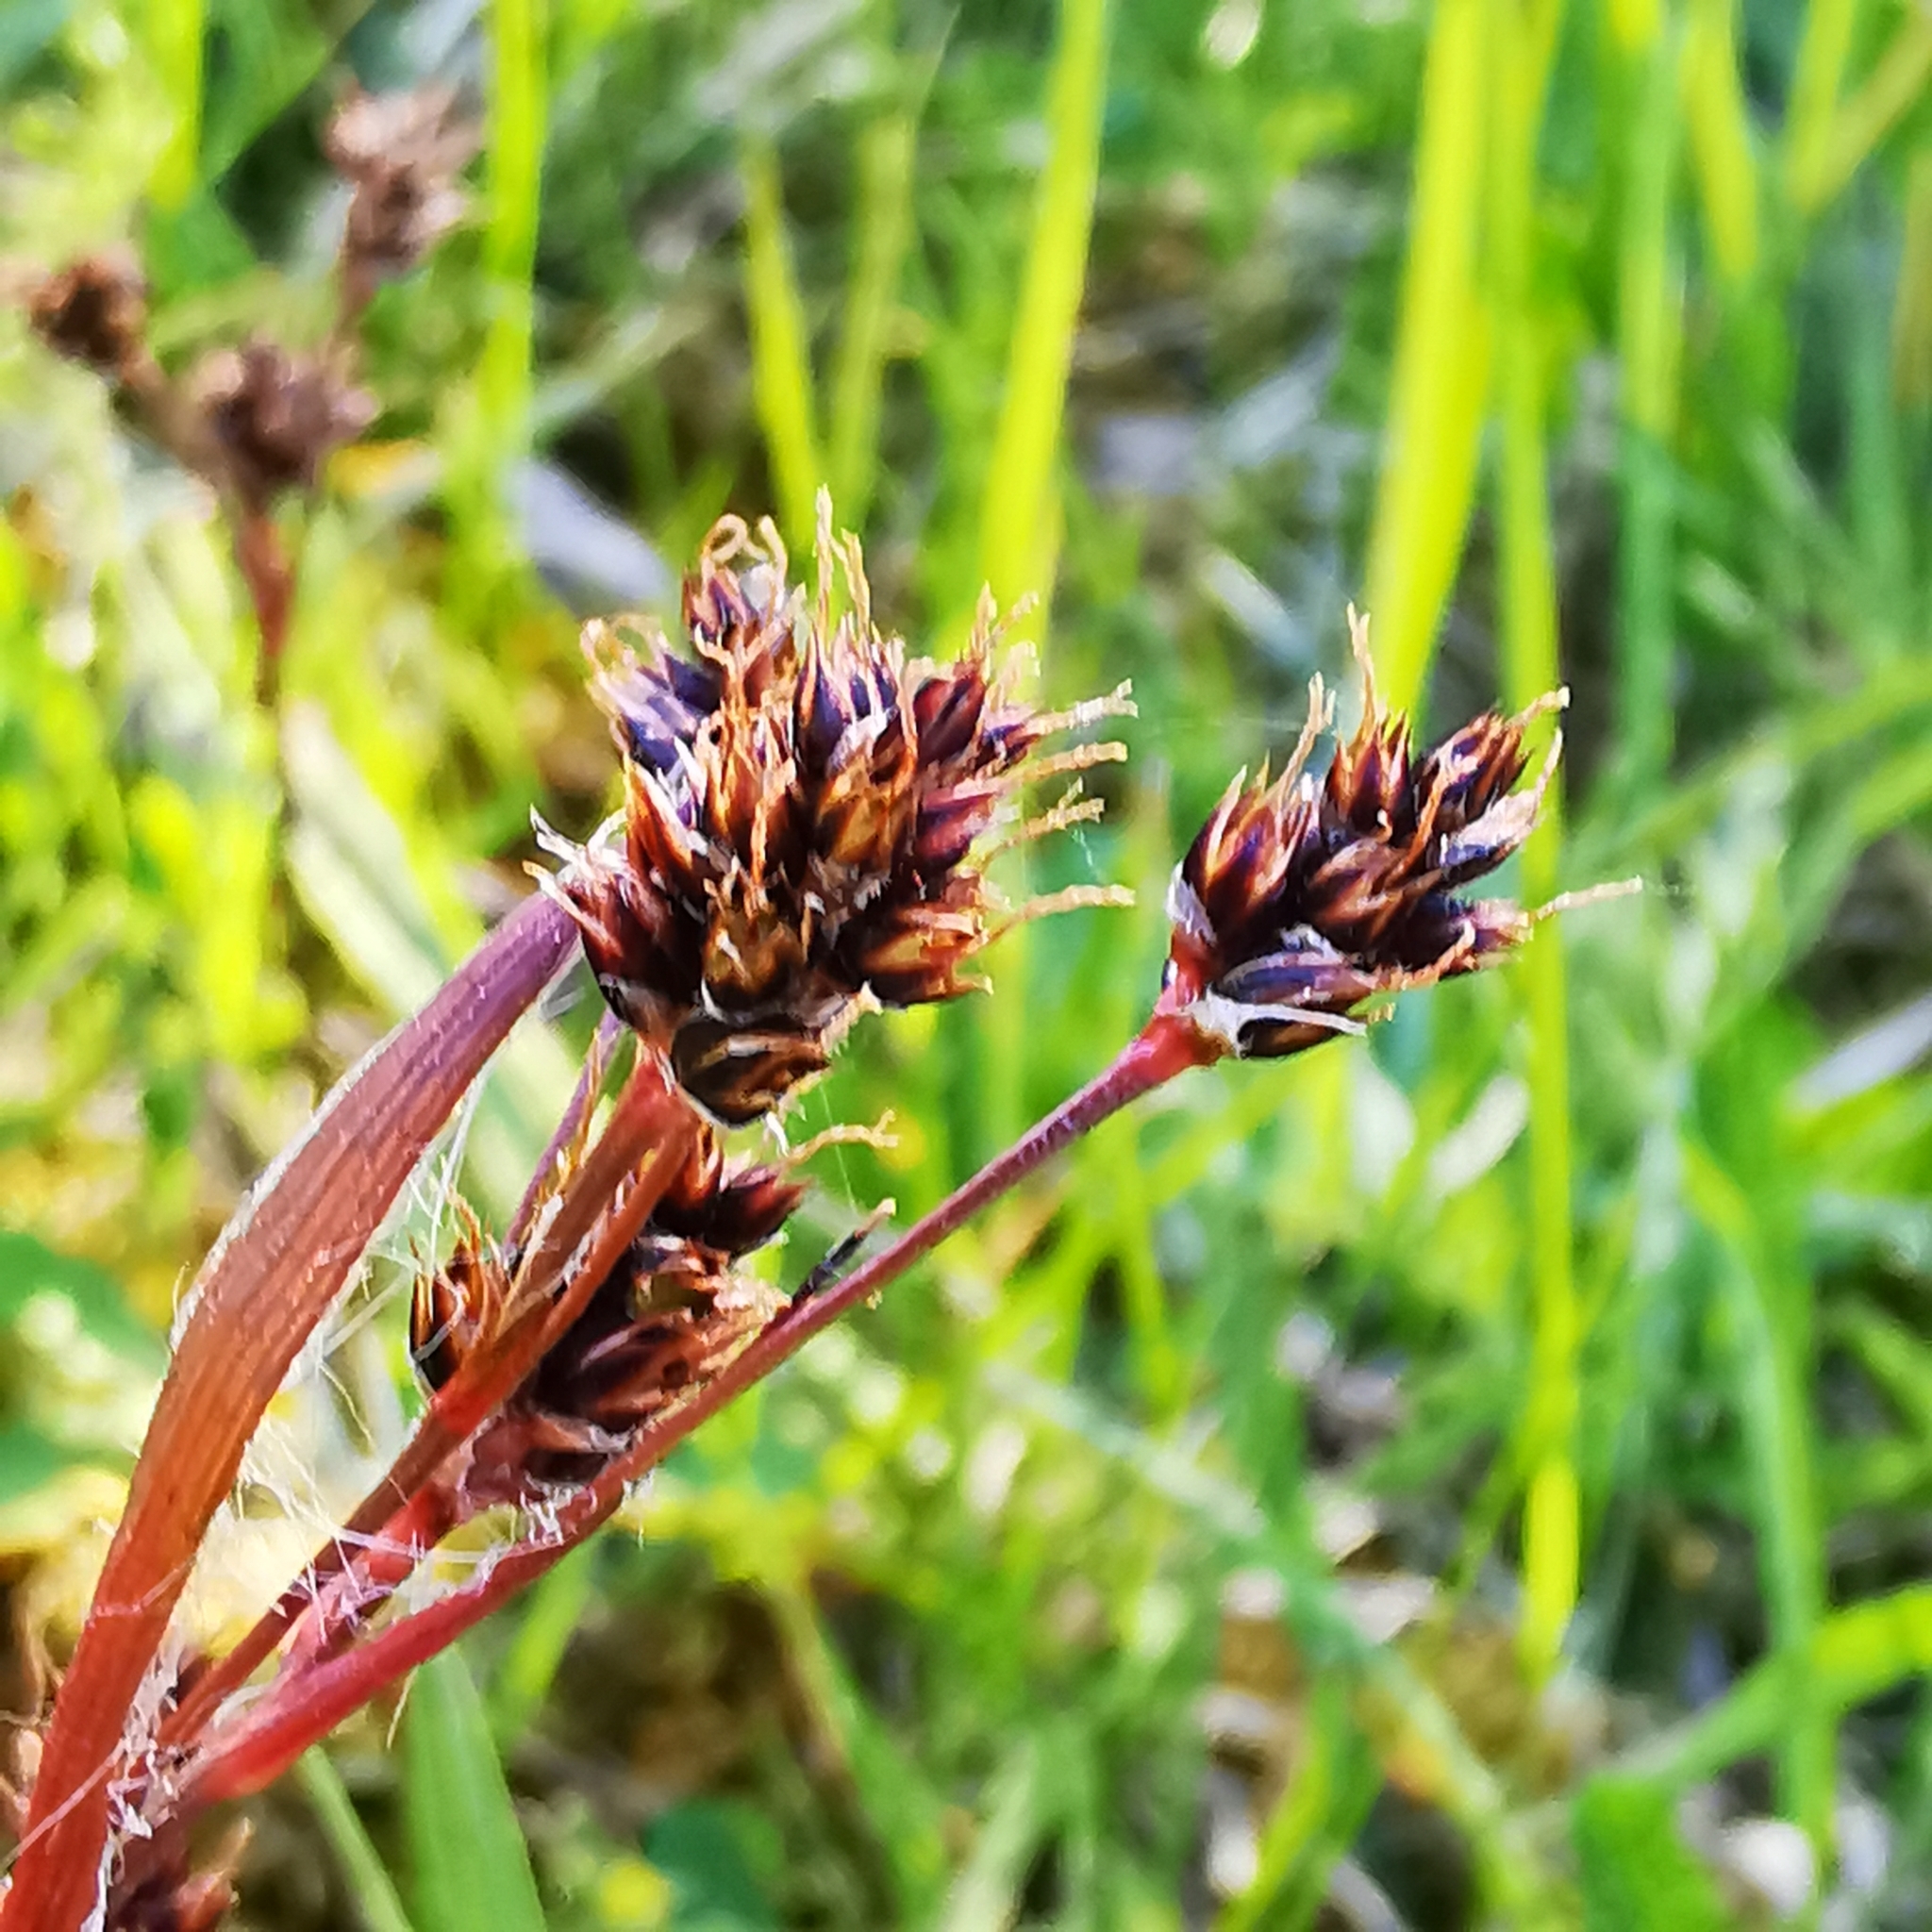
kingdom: Plantae
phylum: Tracheophyta
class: Liliopsida
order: Poales
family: Juncaceae
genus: Luzula
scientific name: Luzula campestris
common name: Field wood-rush
